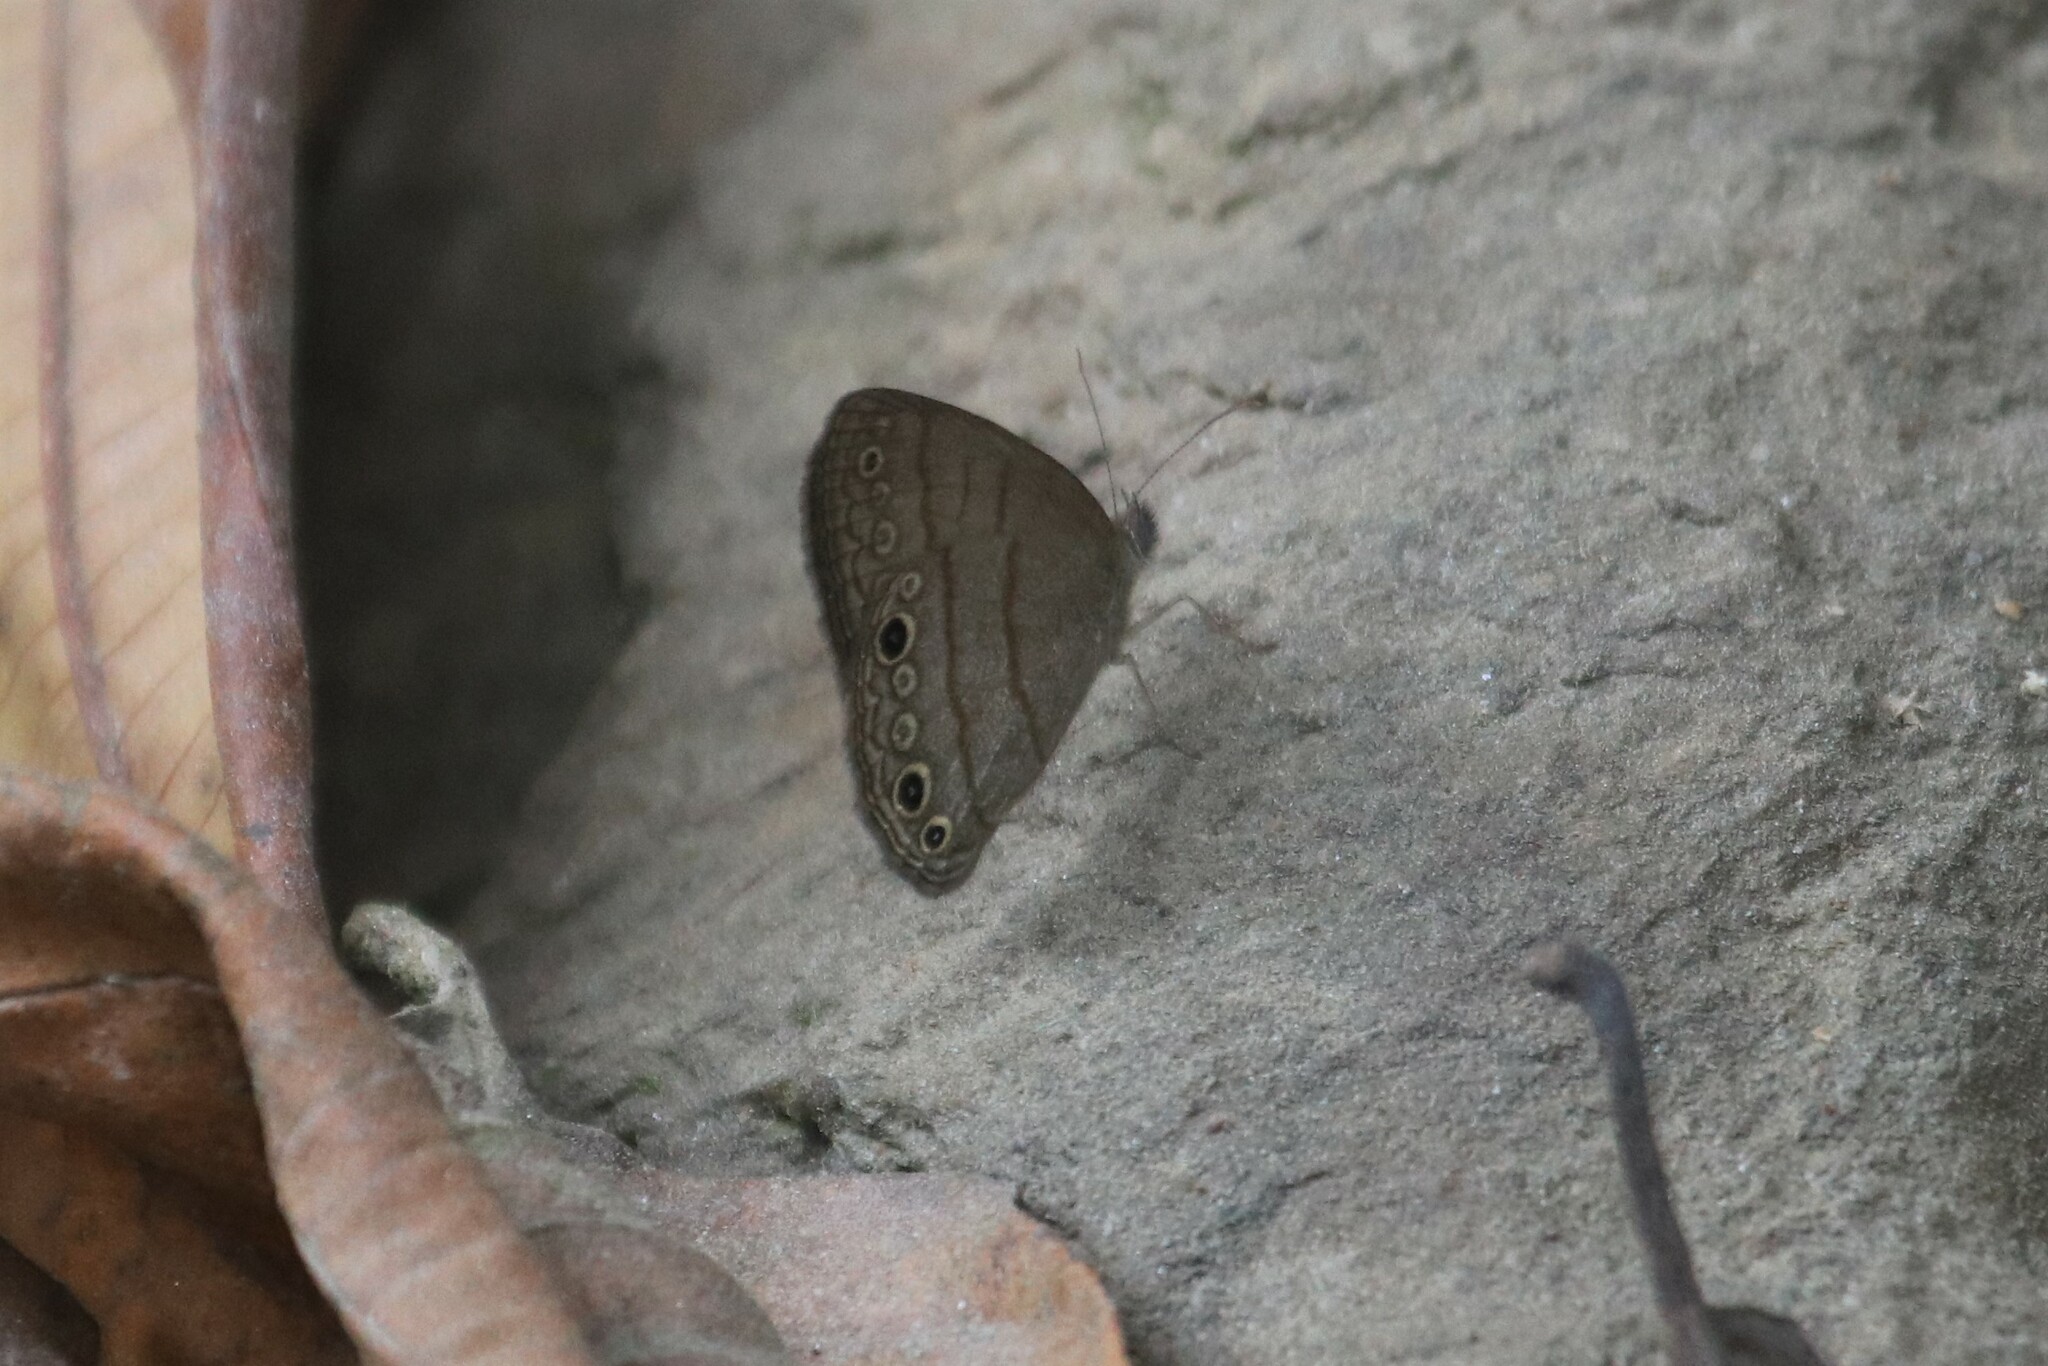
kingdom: Animalia
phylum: Arthropoda
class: Insecta
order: Lepidoptera
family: Nymphalidae
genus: Hermeuptychia
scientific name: Hermeuptychia hermes
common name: Hermes satyr
